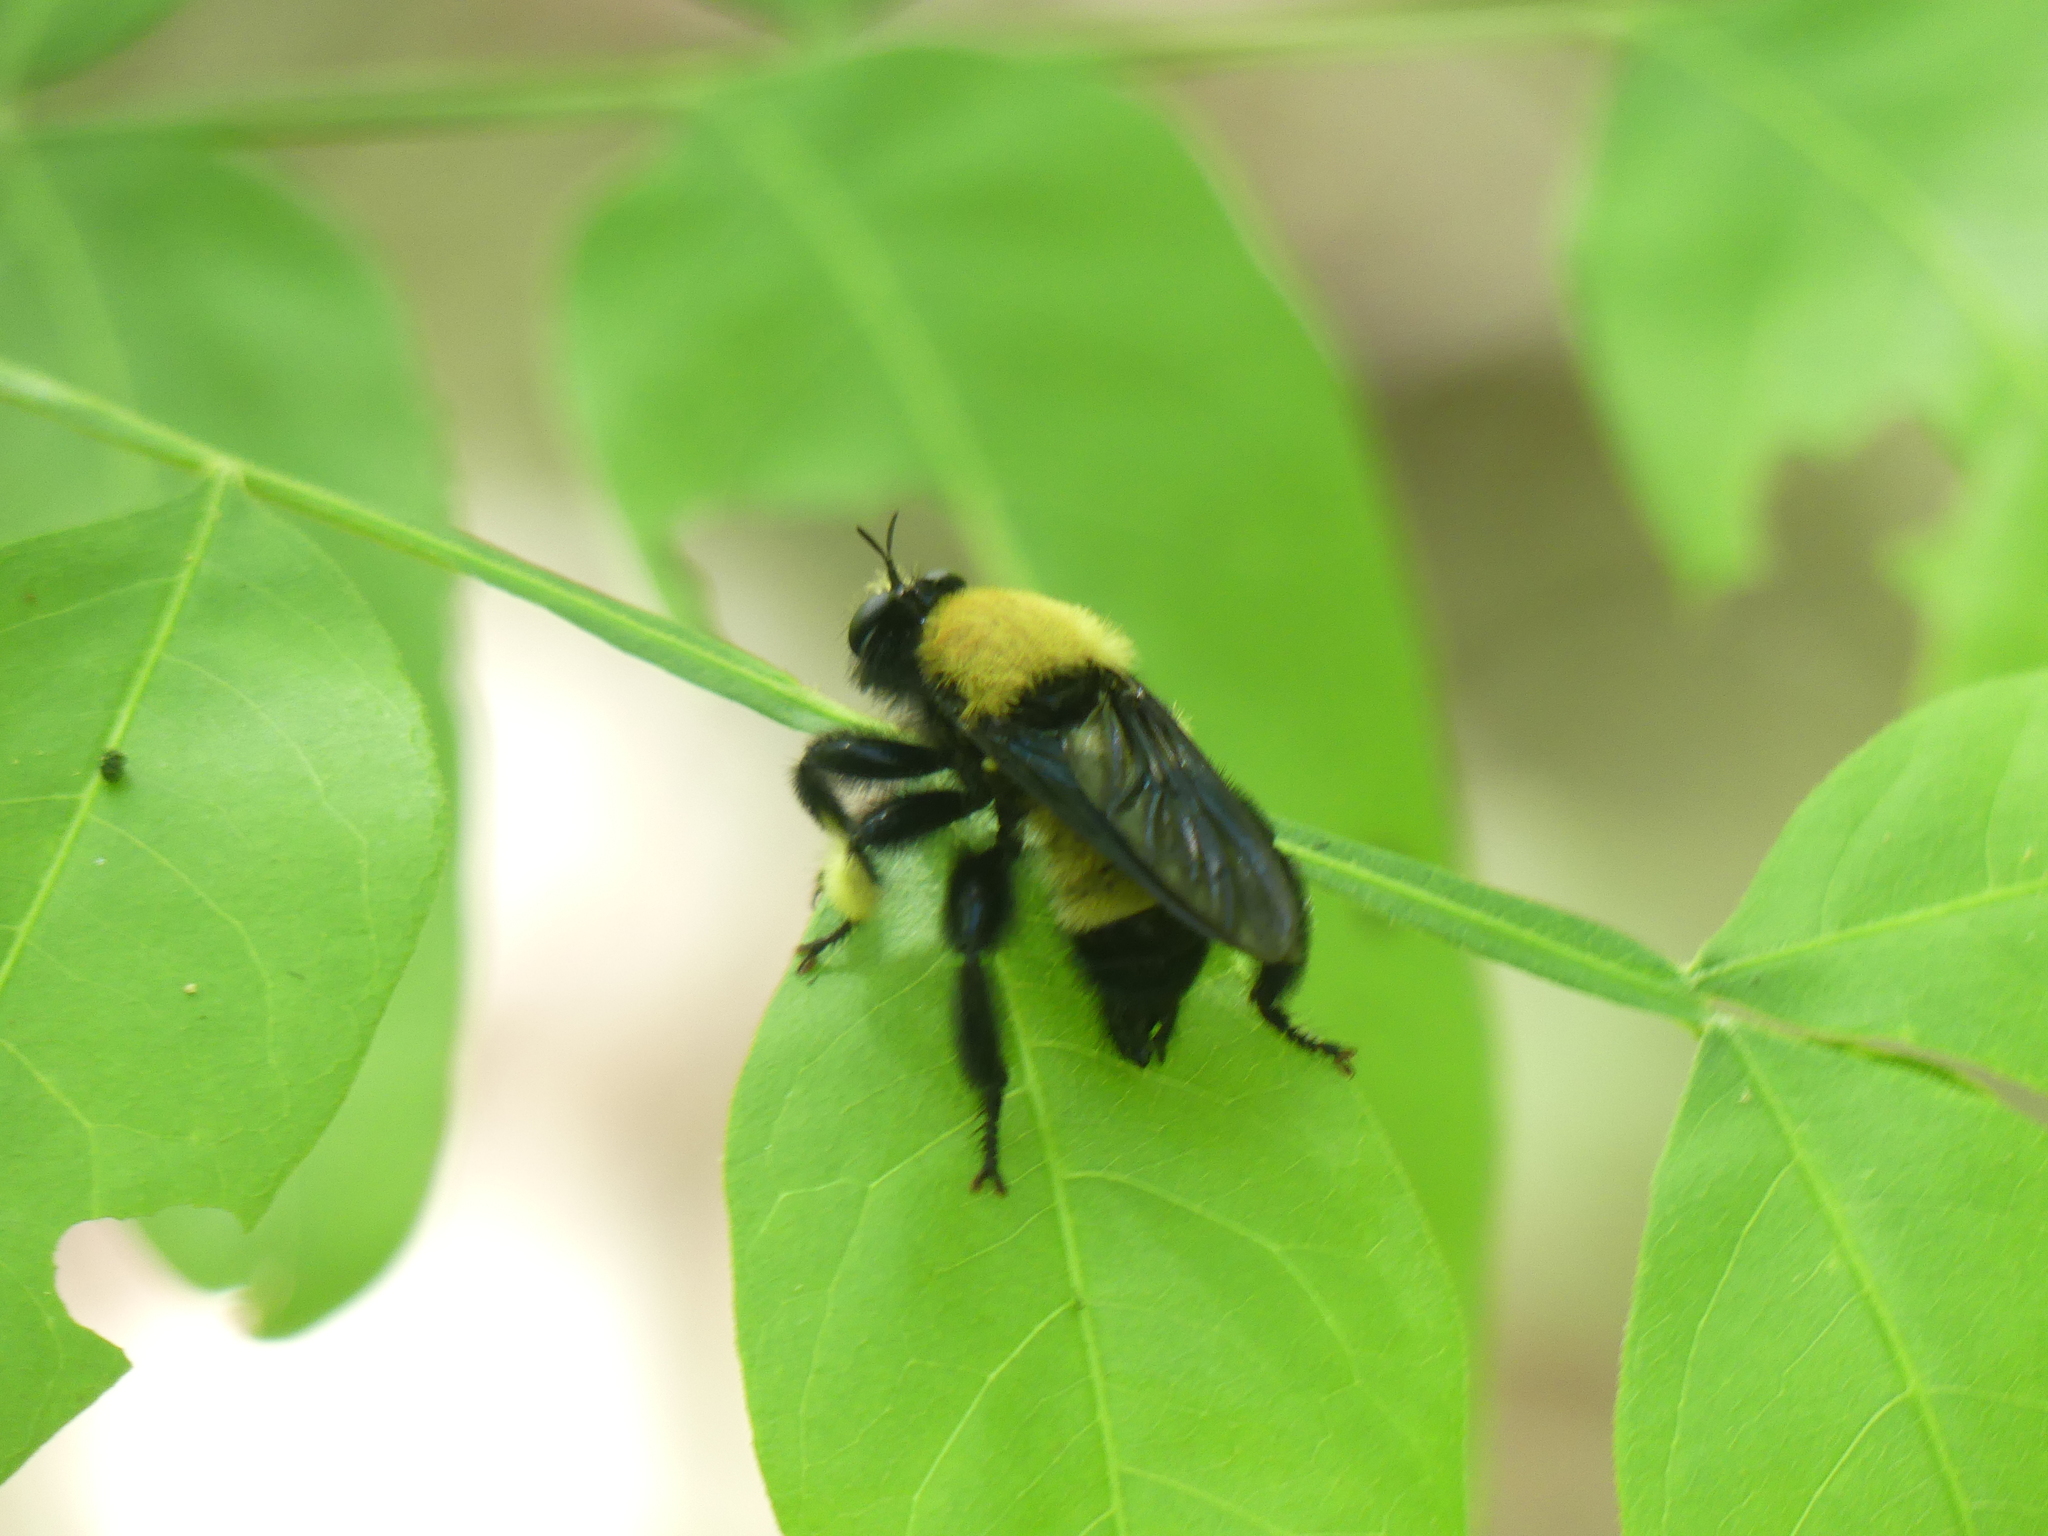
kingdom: Animalia
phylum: Arthropoda
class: Insecta
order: Diptera
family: Asilidae
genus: Laphria
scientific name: Laphria macquarti
